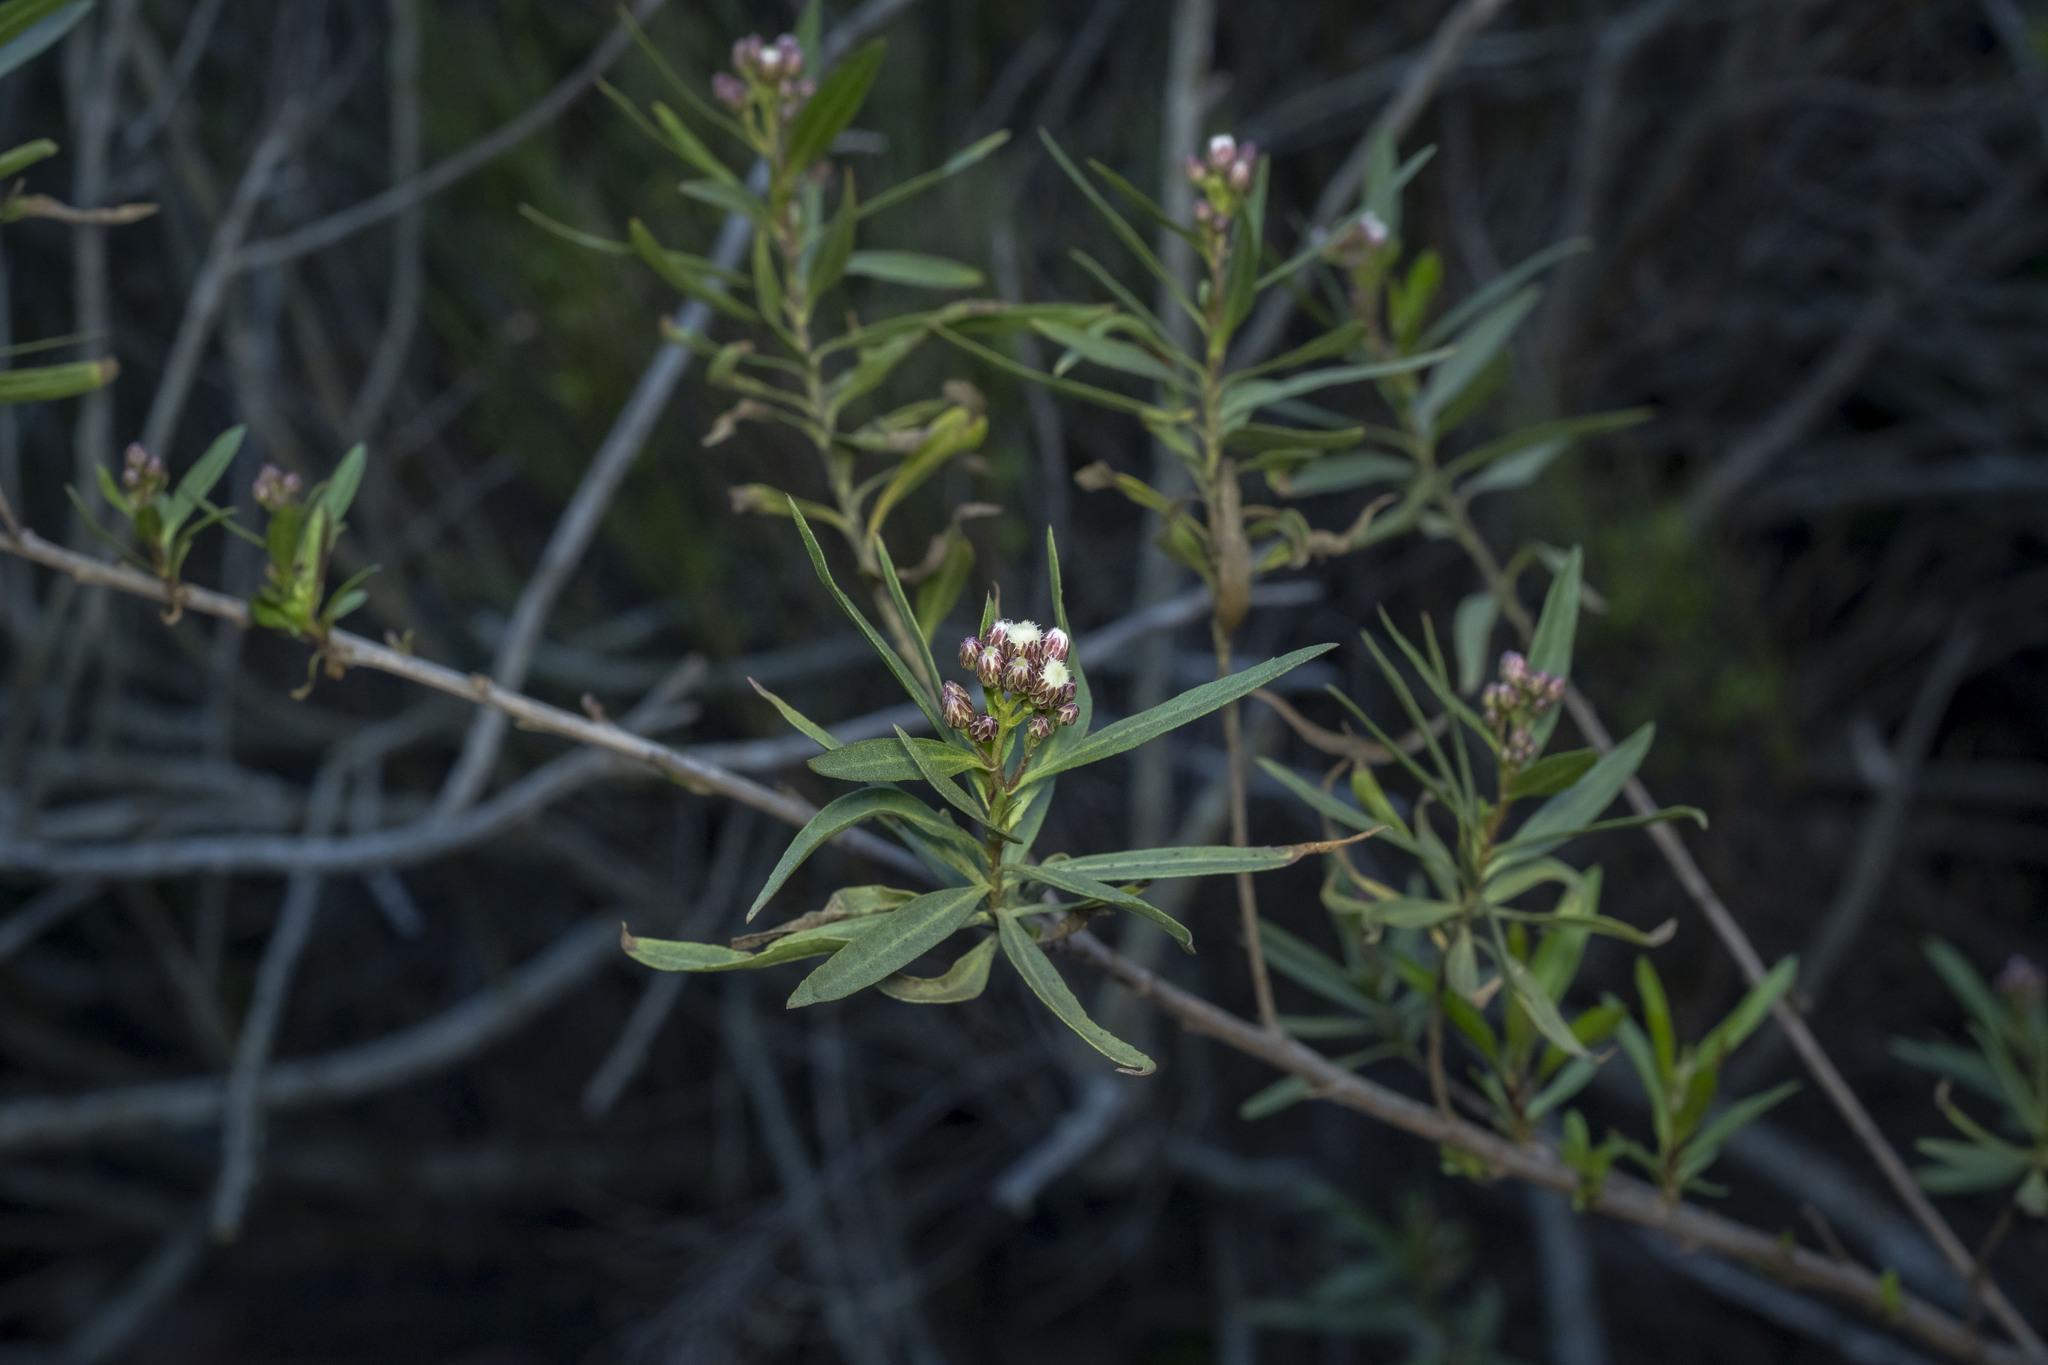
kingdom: Plantae
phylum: Tracheophyta
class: Magnoliopsida
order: Asterales
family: Asteraceae
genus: Baccharis
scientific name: Baccharis salicifolia
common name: Sticky baccharis
